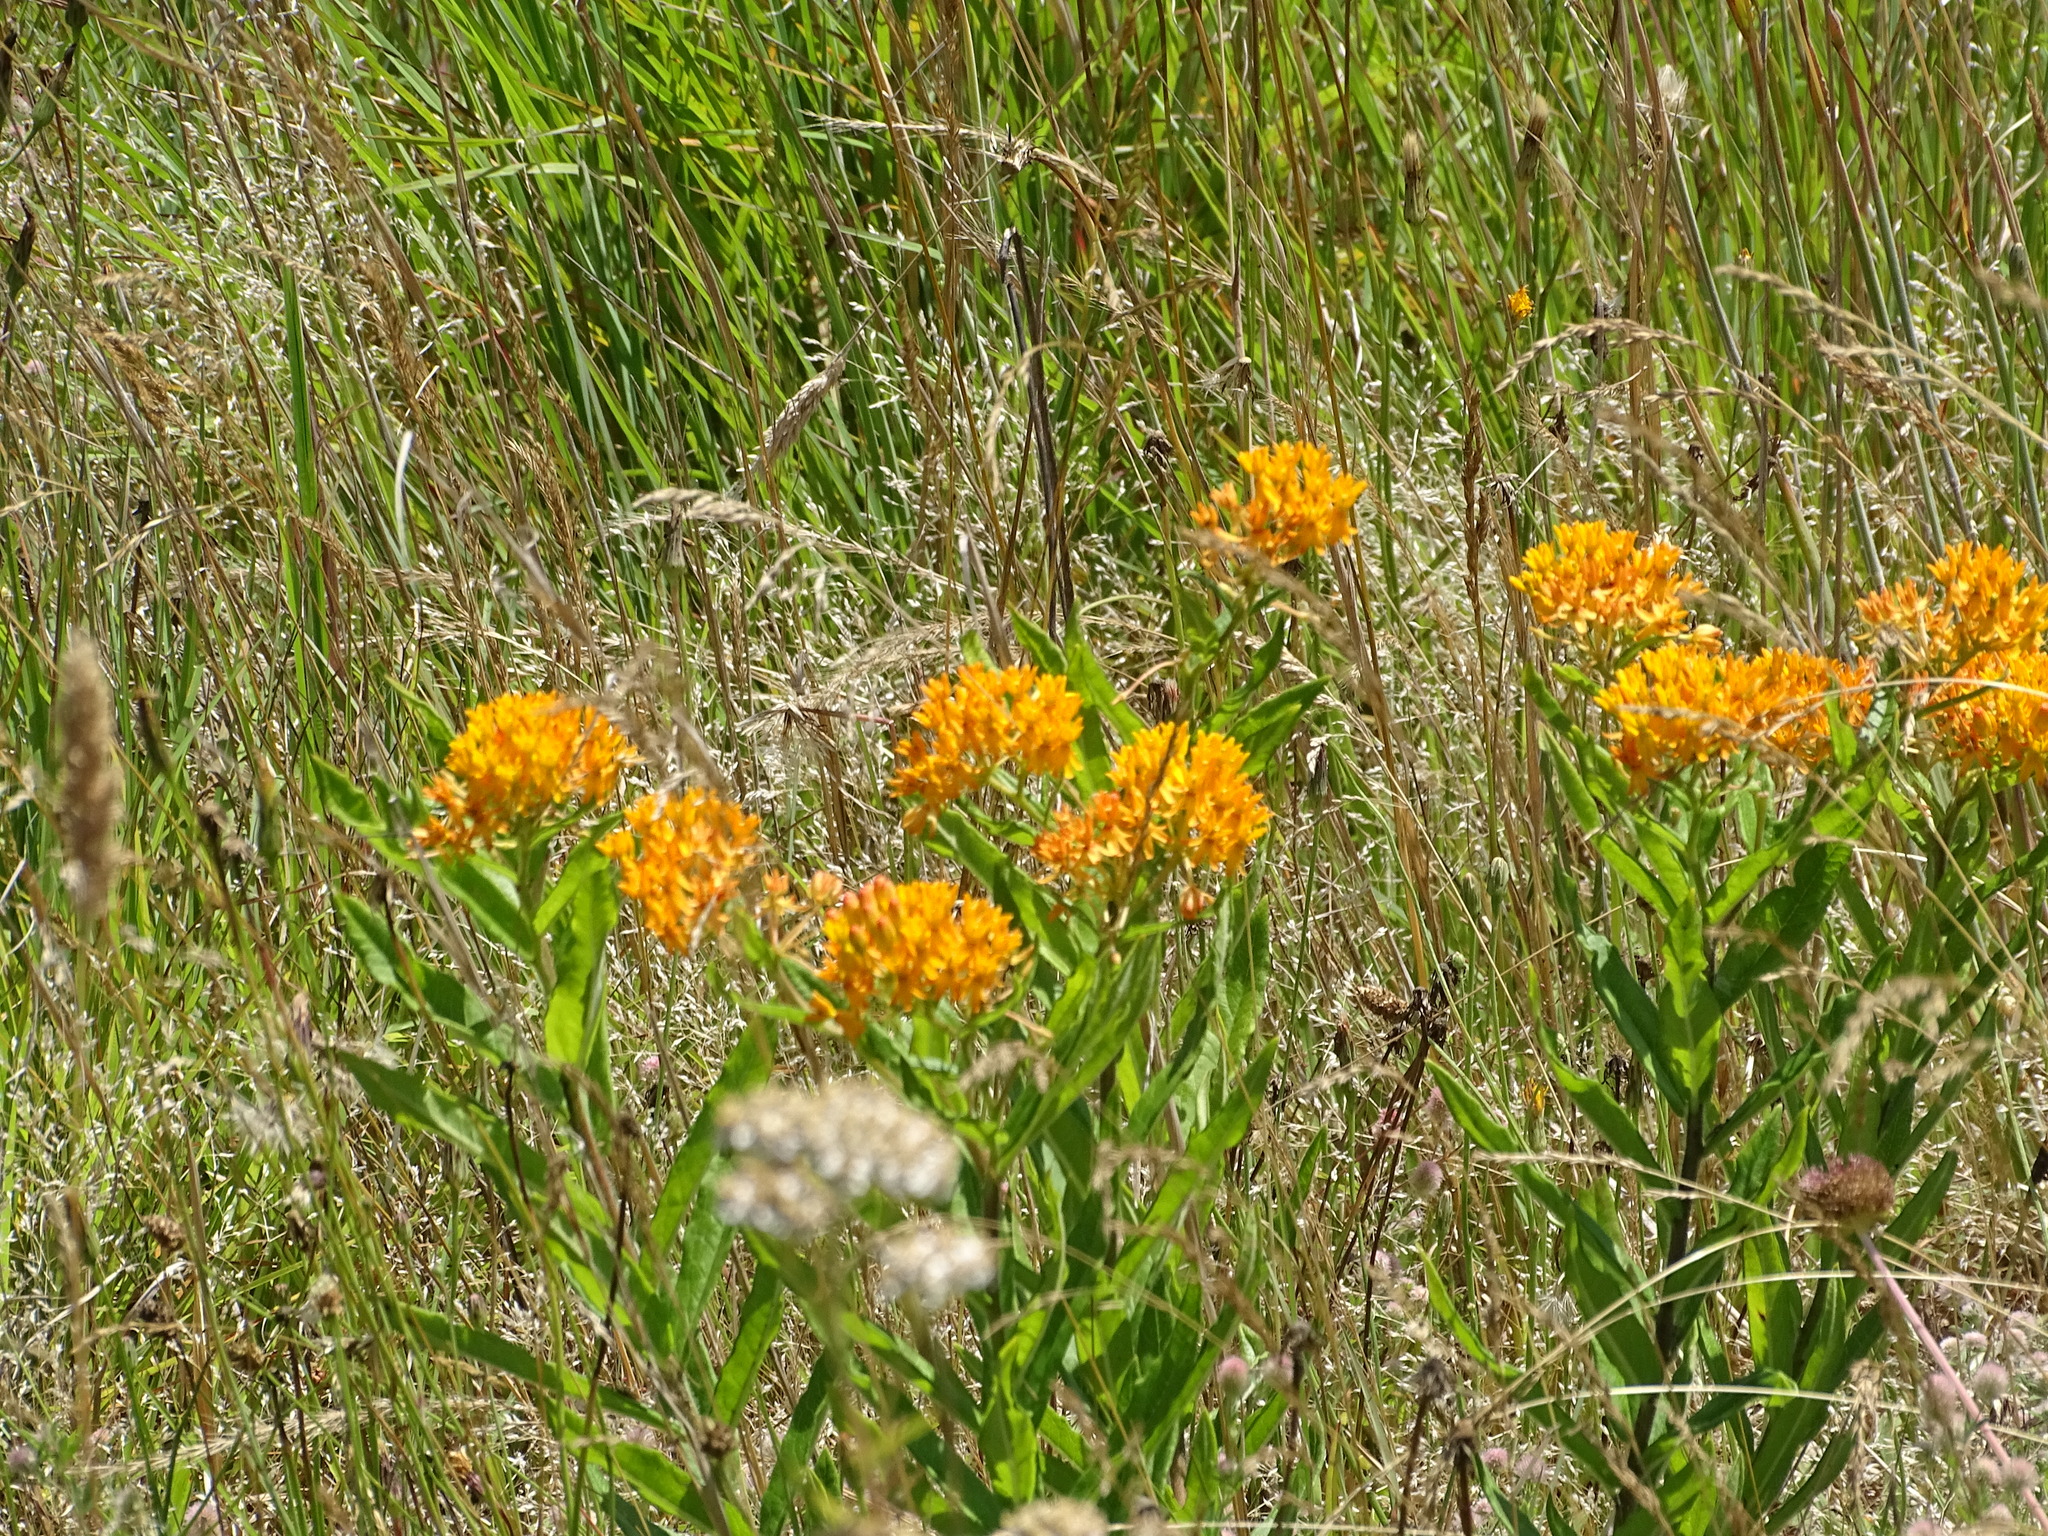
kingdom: Plantae
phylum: Tracheophyta
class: Magnoliopsida
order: Gentianales
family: Apocynaceae
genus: Asclepias
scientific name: Asclepias tuberosa
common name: Butterfly milkweed
